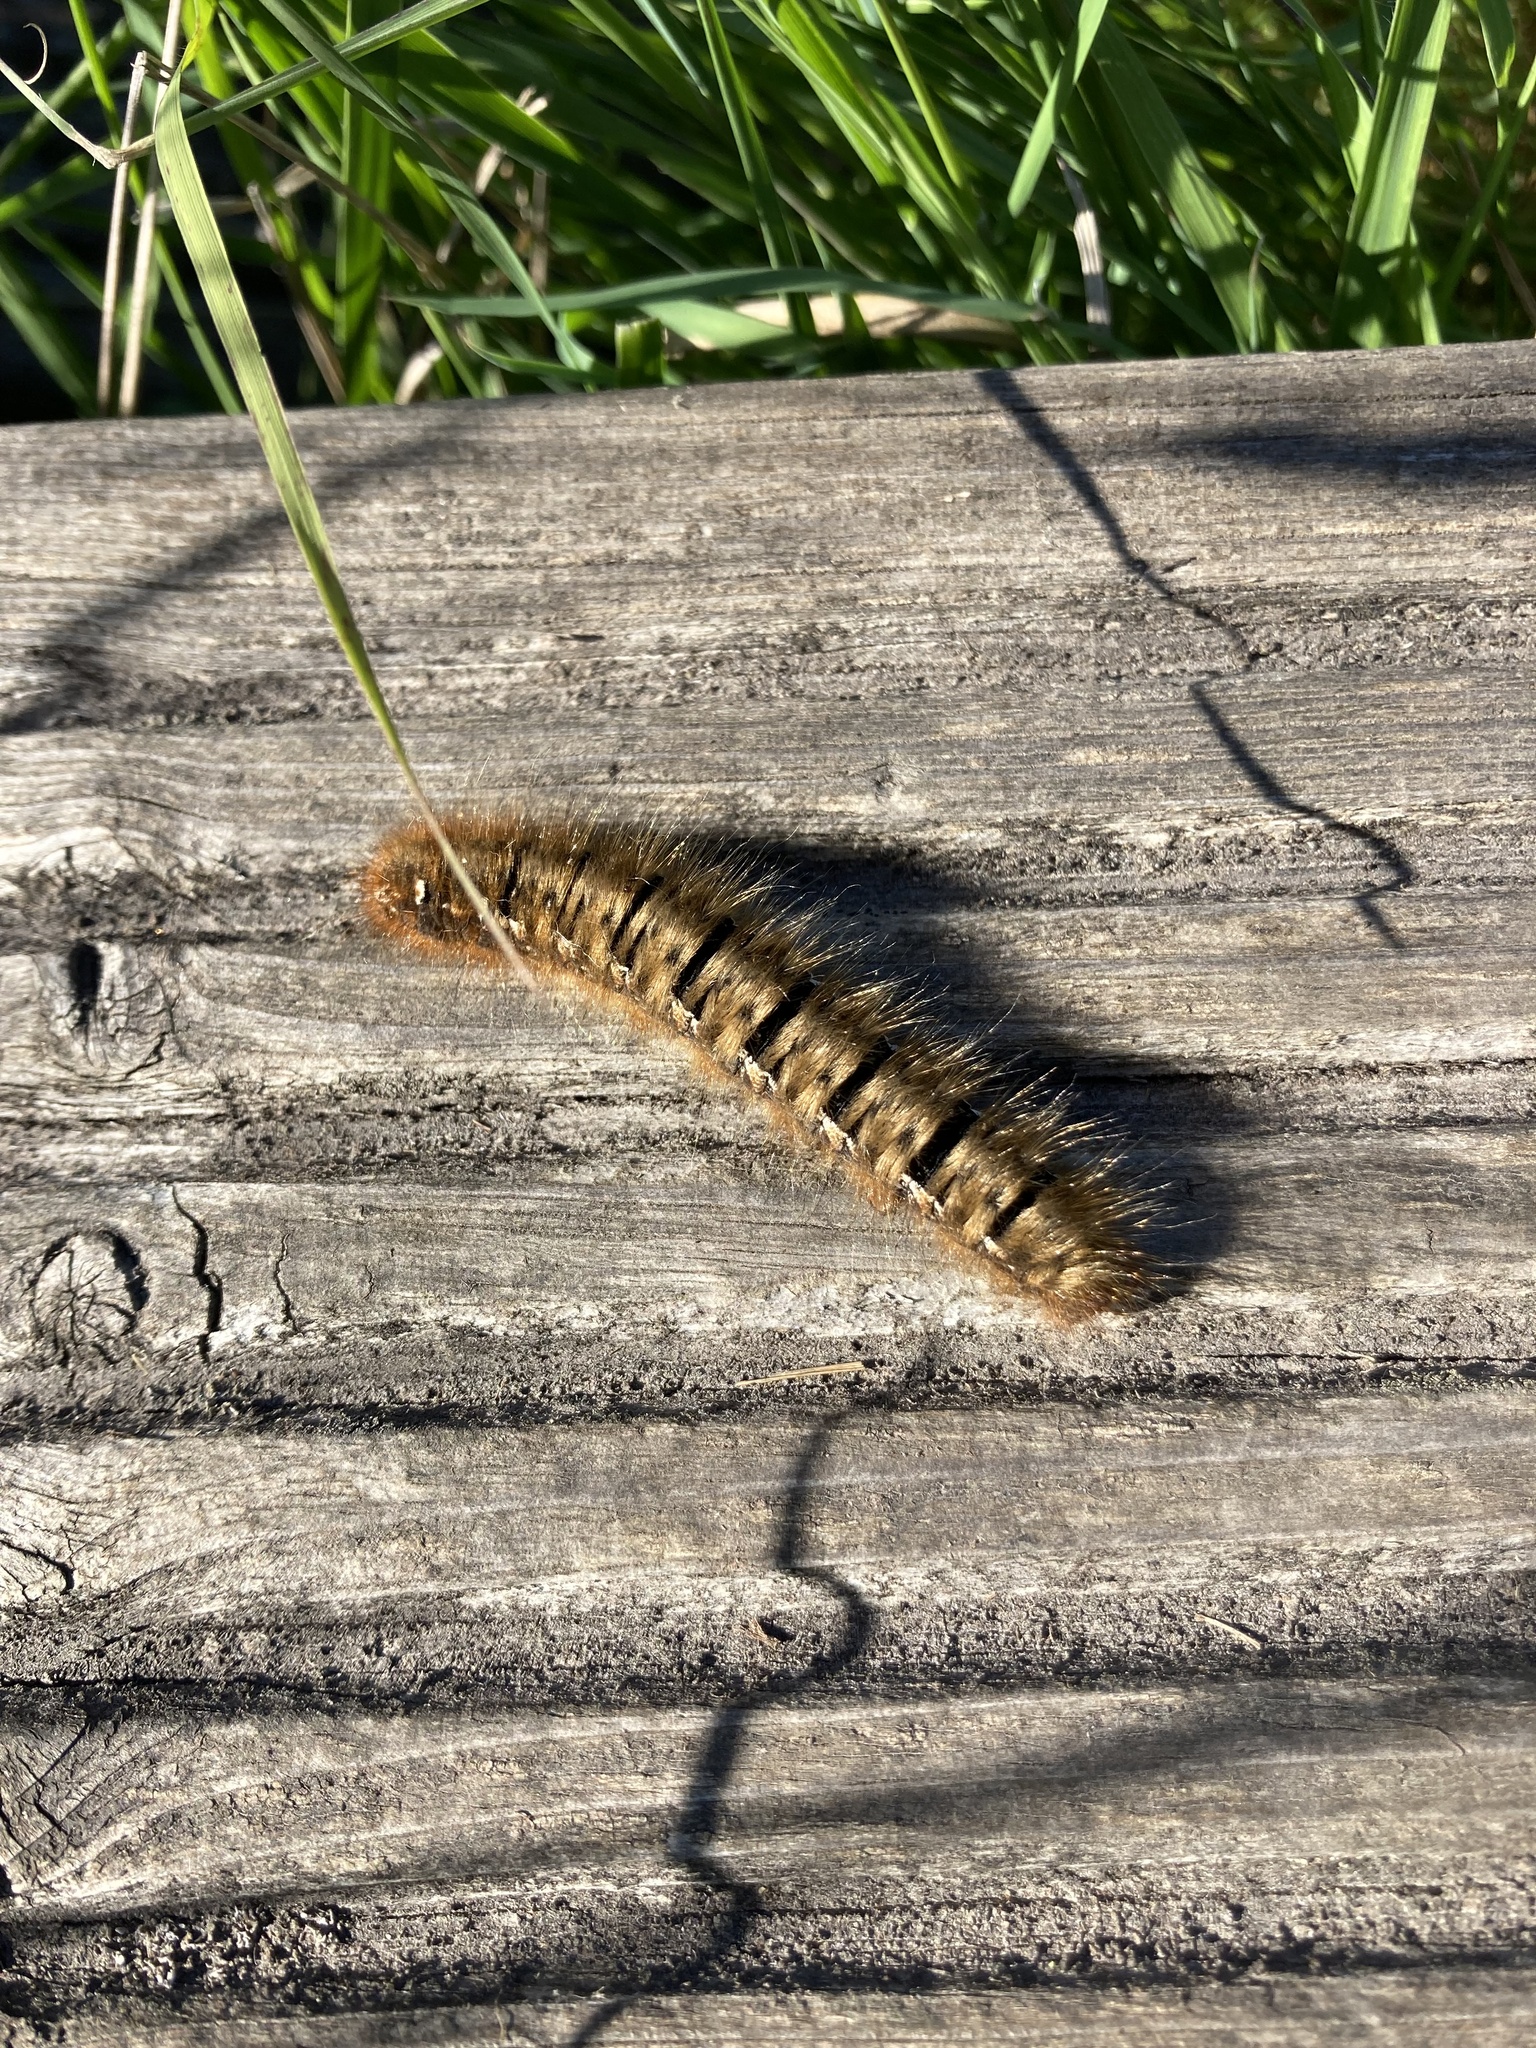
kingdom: Animalia
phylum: Arthropoda
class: Insecta
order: Lepidoptera
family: Lasiocampidae
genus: Lasiocampa
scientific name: Lasiocampa quercus
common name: Oak eggar
